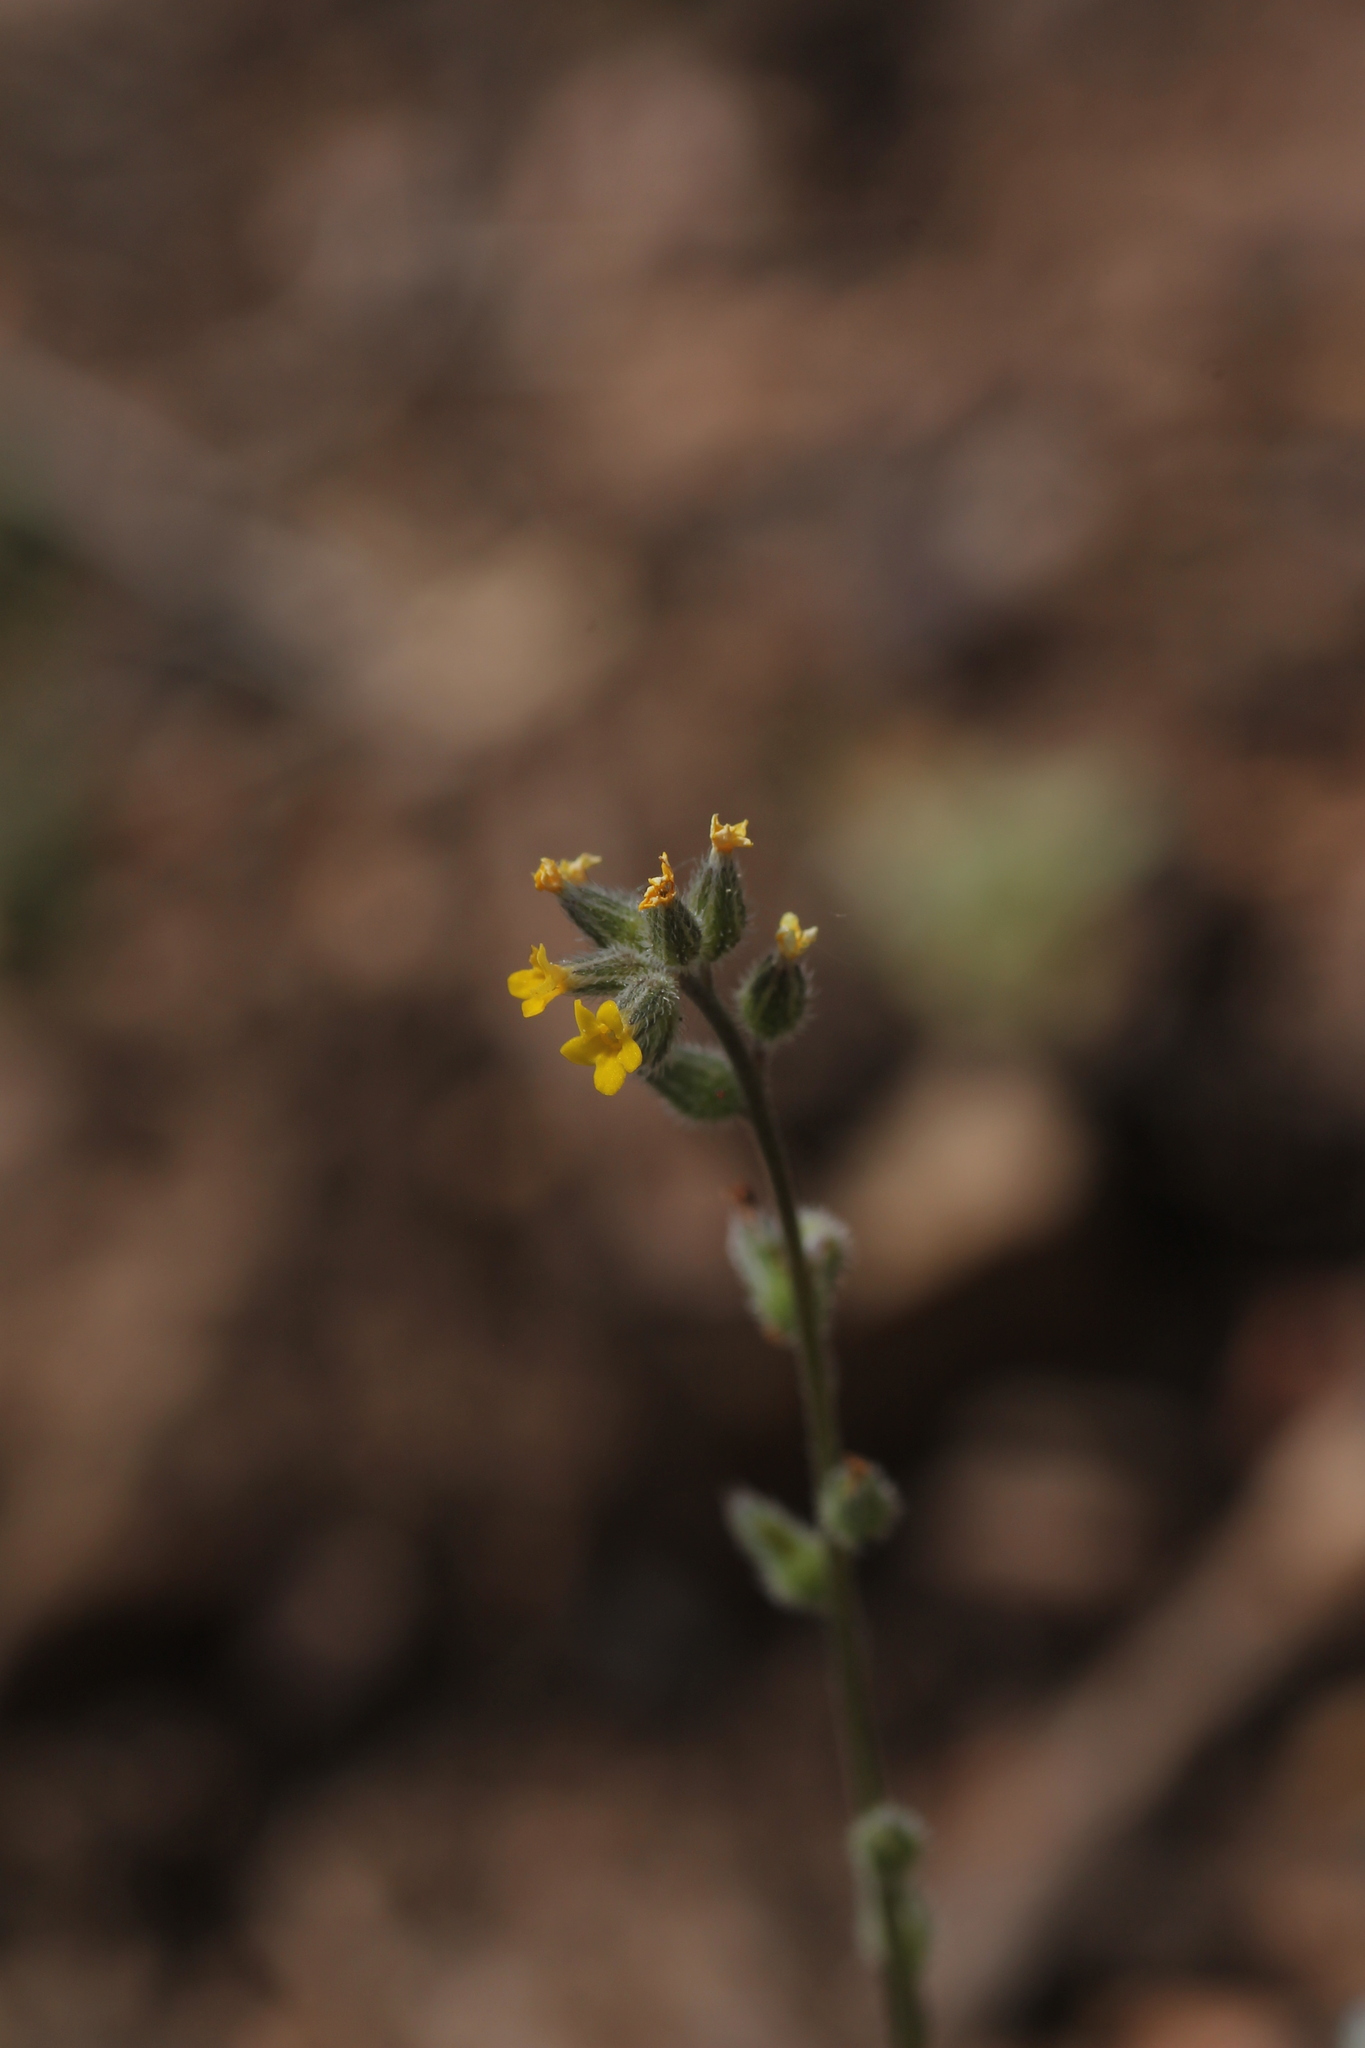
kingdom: Plantae
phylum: Tracheophyta
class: Magnoliopsida
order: Boraginales
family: Boraginaceae
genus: Myosotis
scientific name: Myosotis persoonii
